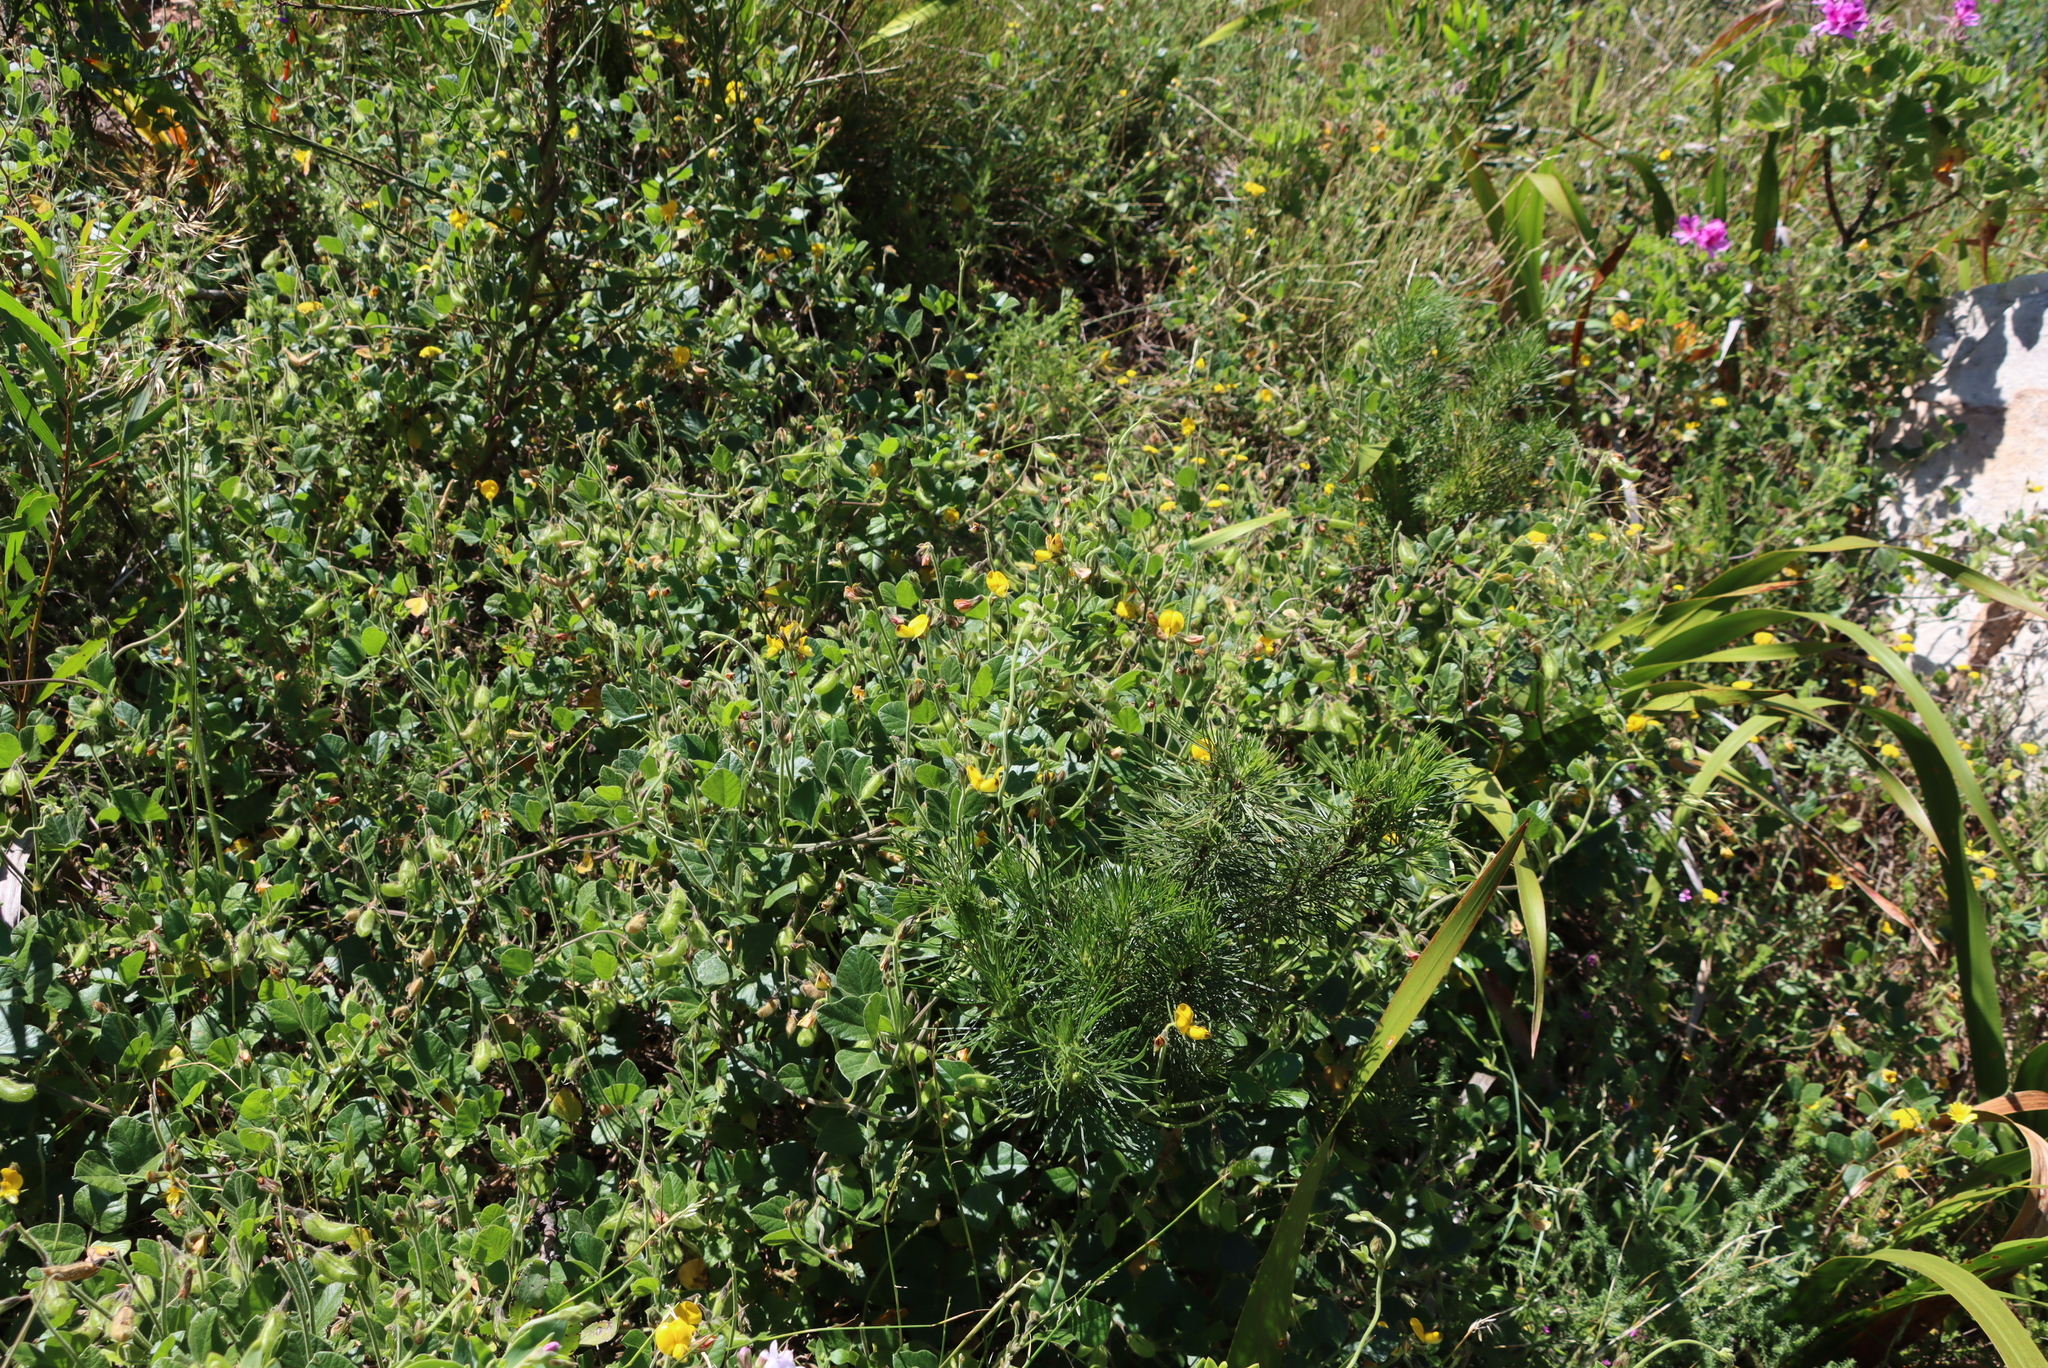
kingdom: Plantae
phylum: Tracheophyta
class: Magnoliopsida
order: Fabales
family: Fabaceae
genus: Bolusafra
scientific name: Bolusafra bituminosa
